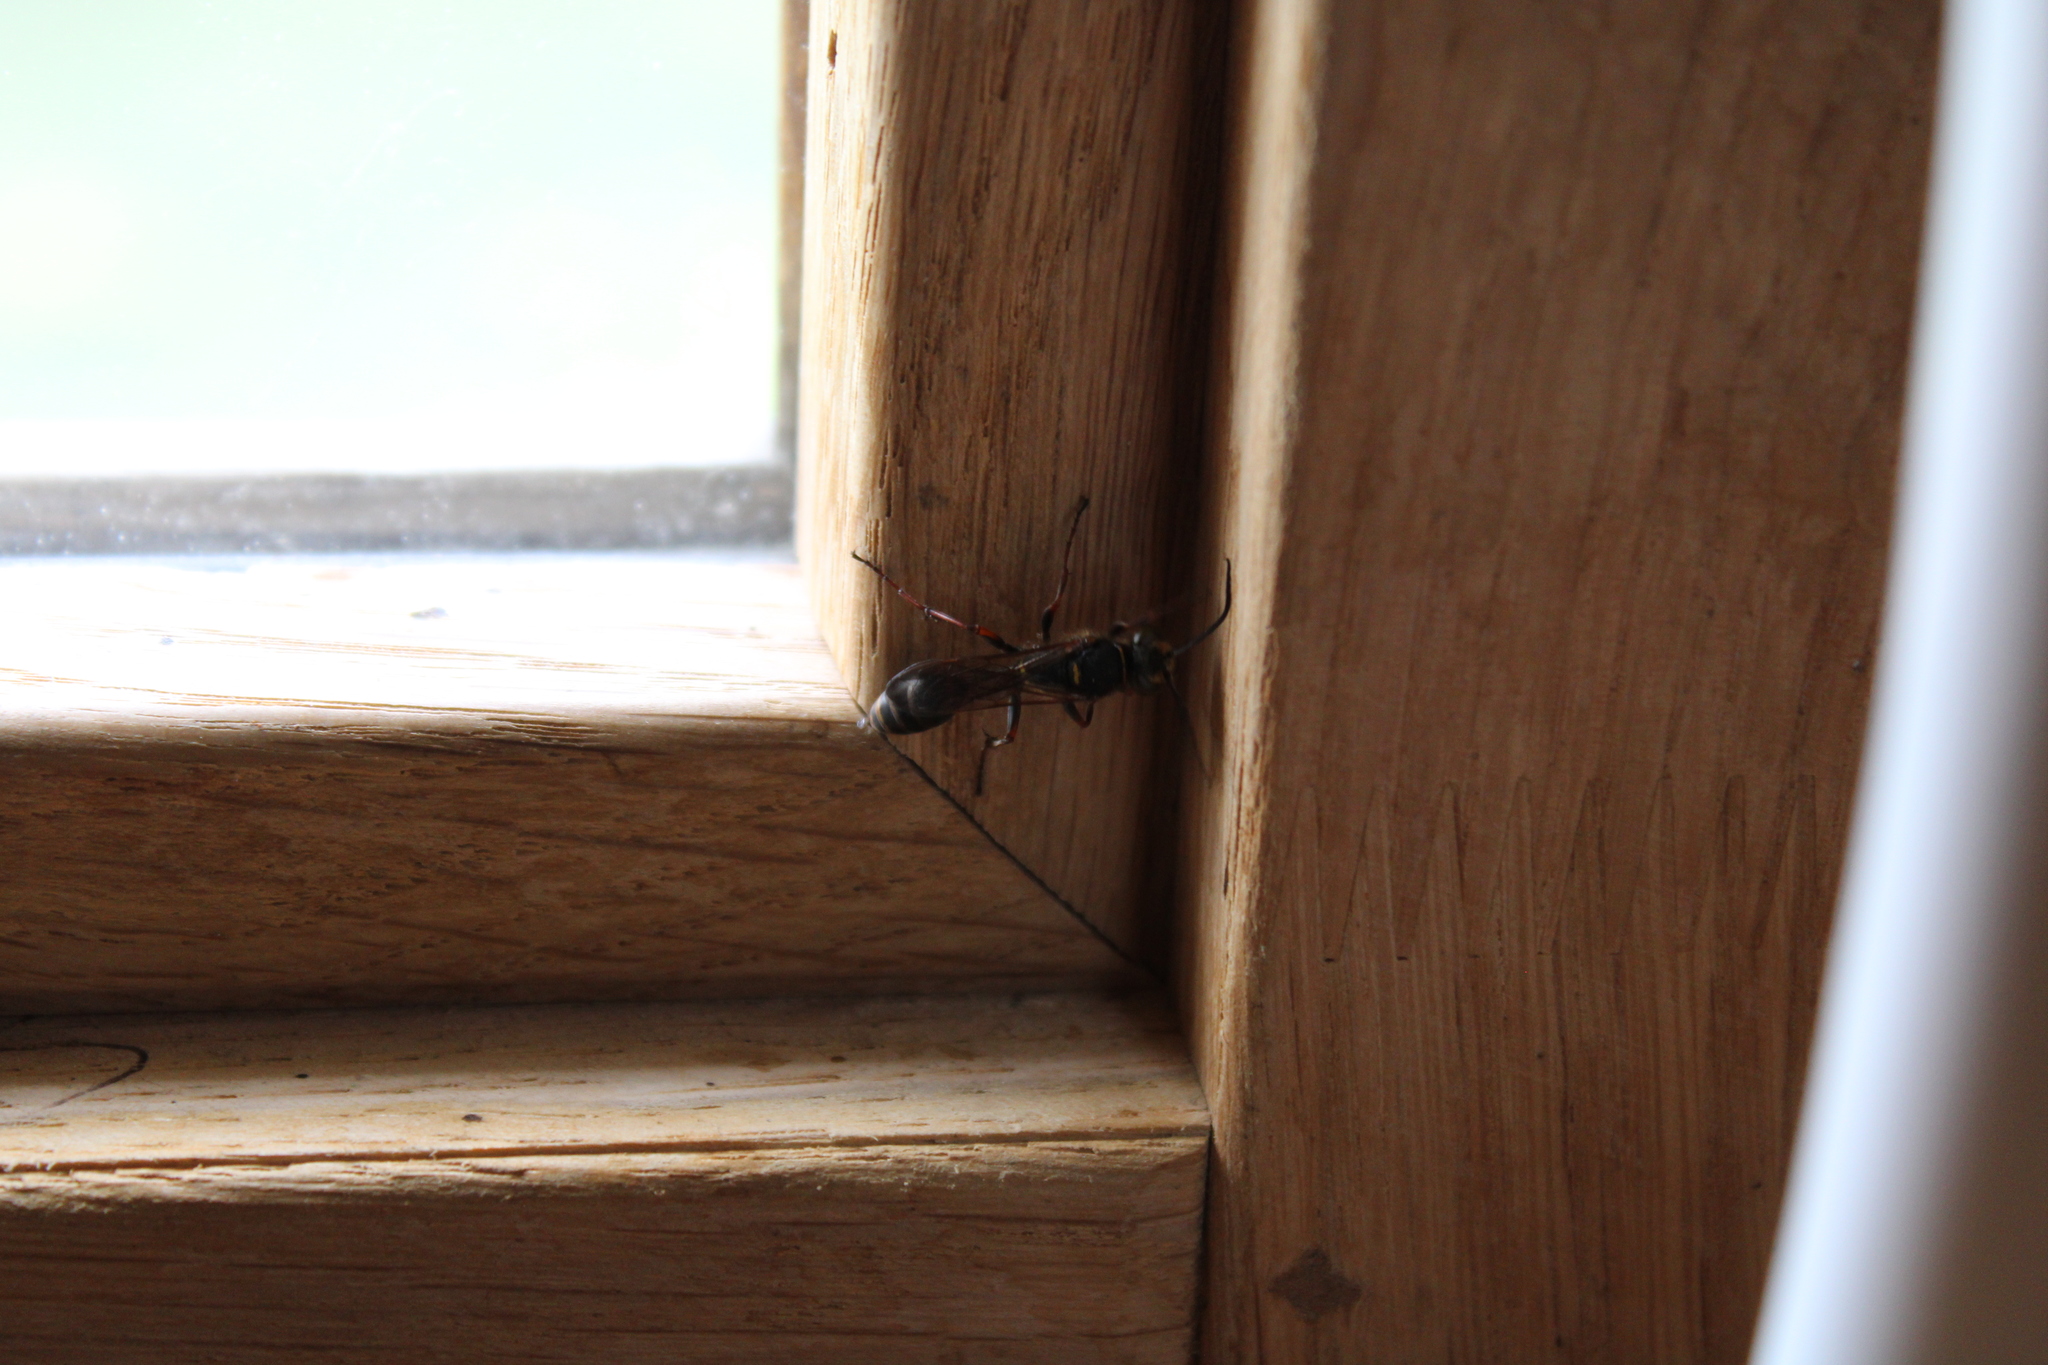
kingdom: Animalia
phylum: Arthropoda
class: Insecta
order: Hymenoptera
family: Sphecidae
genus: Sceliphron
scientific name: Sceliphron curvatum
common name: Pèlopèe
